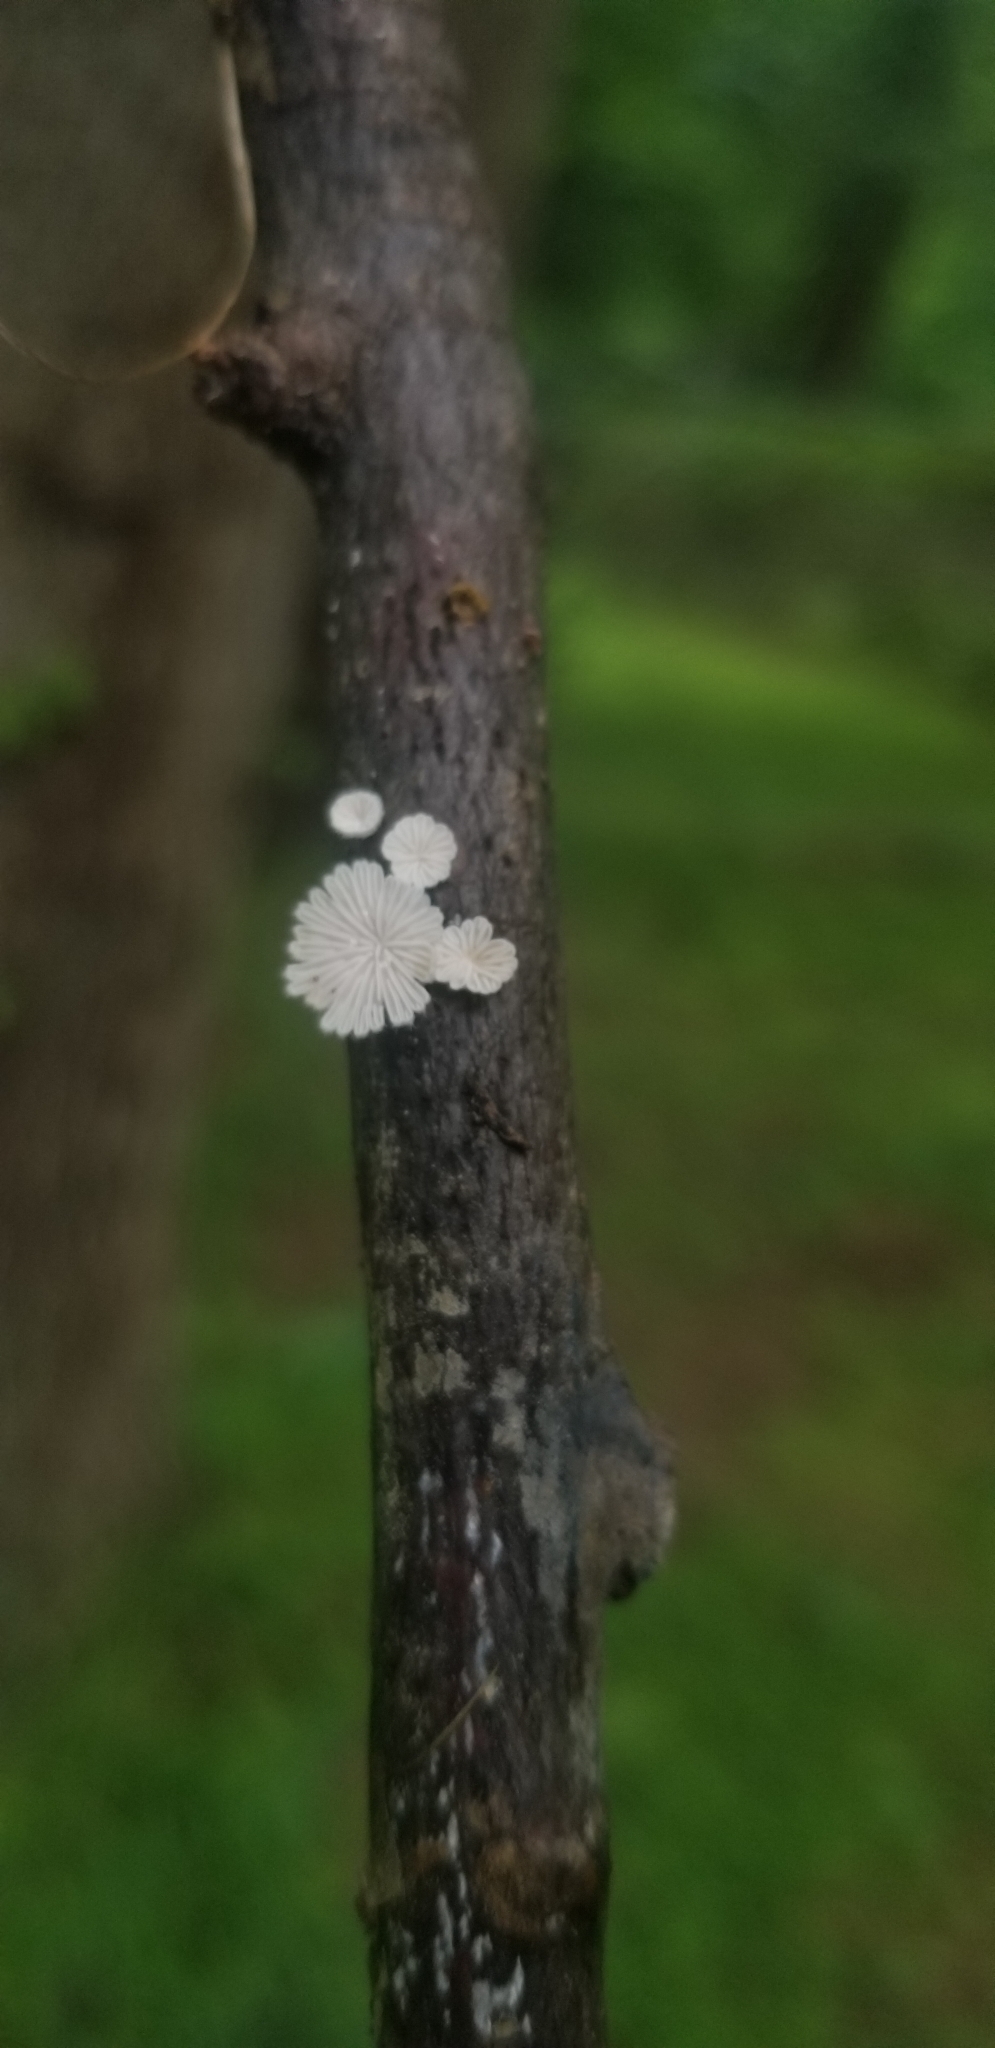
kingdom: Fungi
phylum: Basidiomycota
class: Agaricomycetes
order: Agaricales
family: Schizophyllaceae
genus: Schizophyllum
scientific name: Schizophyllum commune
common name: Common porecrust
